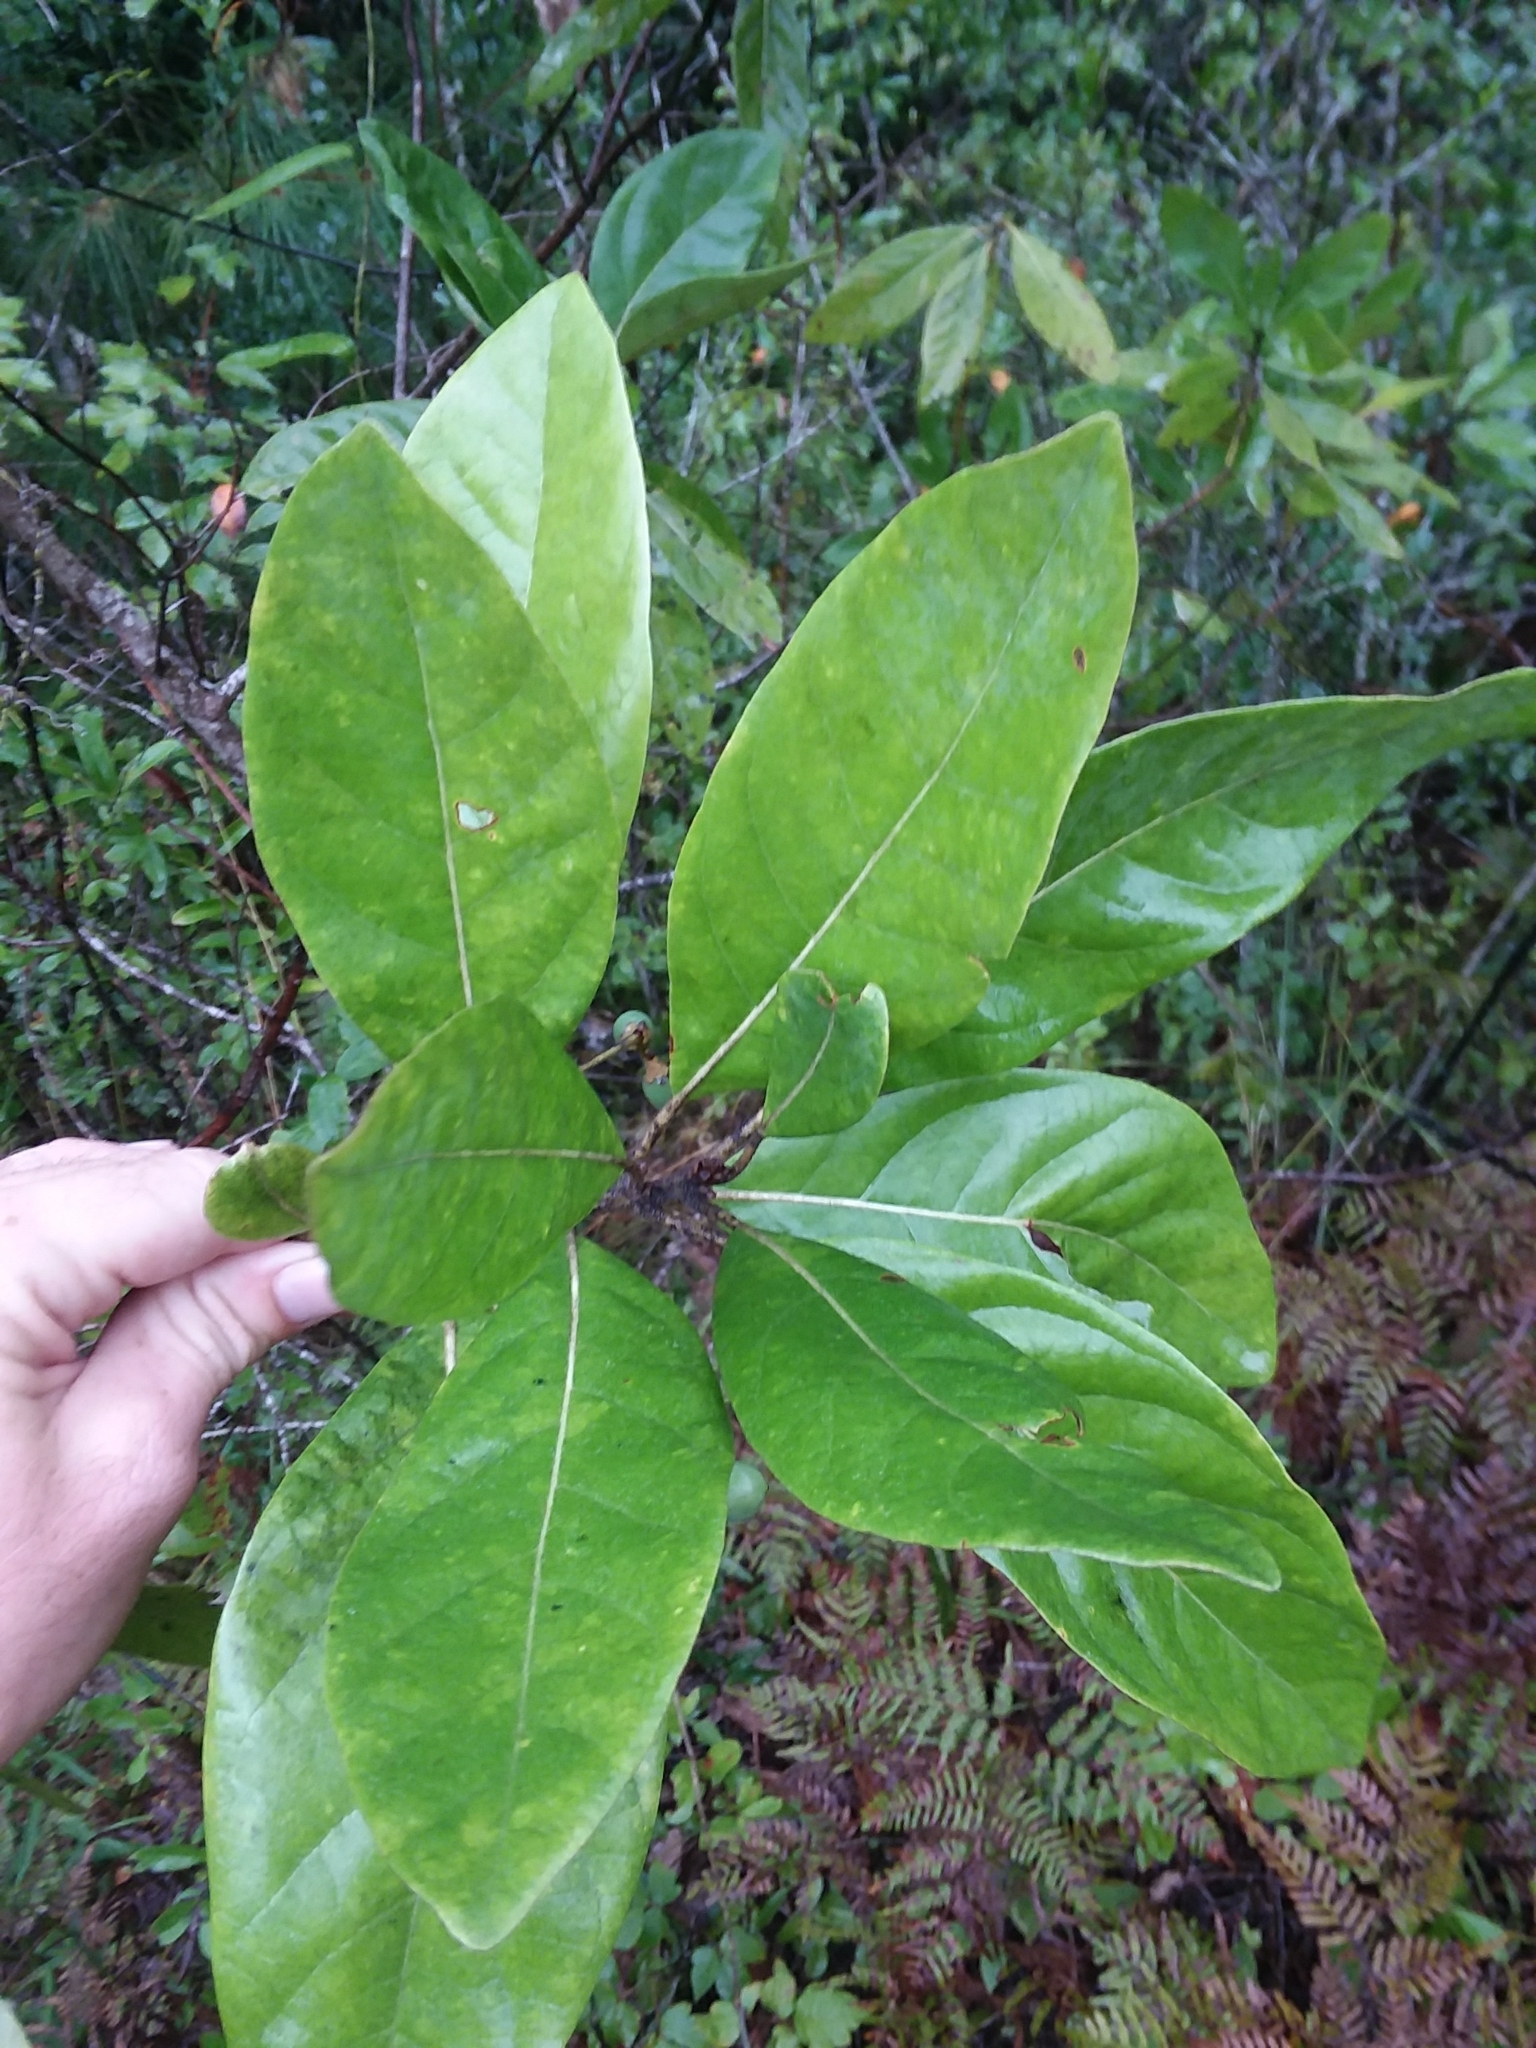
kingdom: Plantae
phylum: Tracheophyta
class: Magnoliopsida
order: Laurales
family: Lauraceae
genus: Persea
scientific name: Persea palustris
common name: Swampbay
